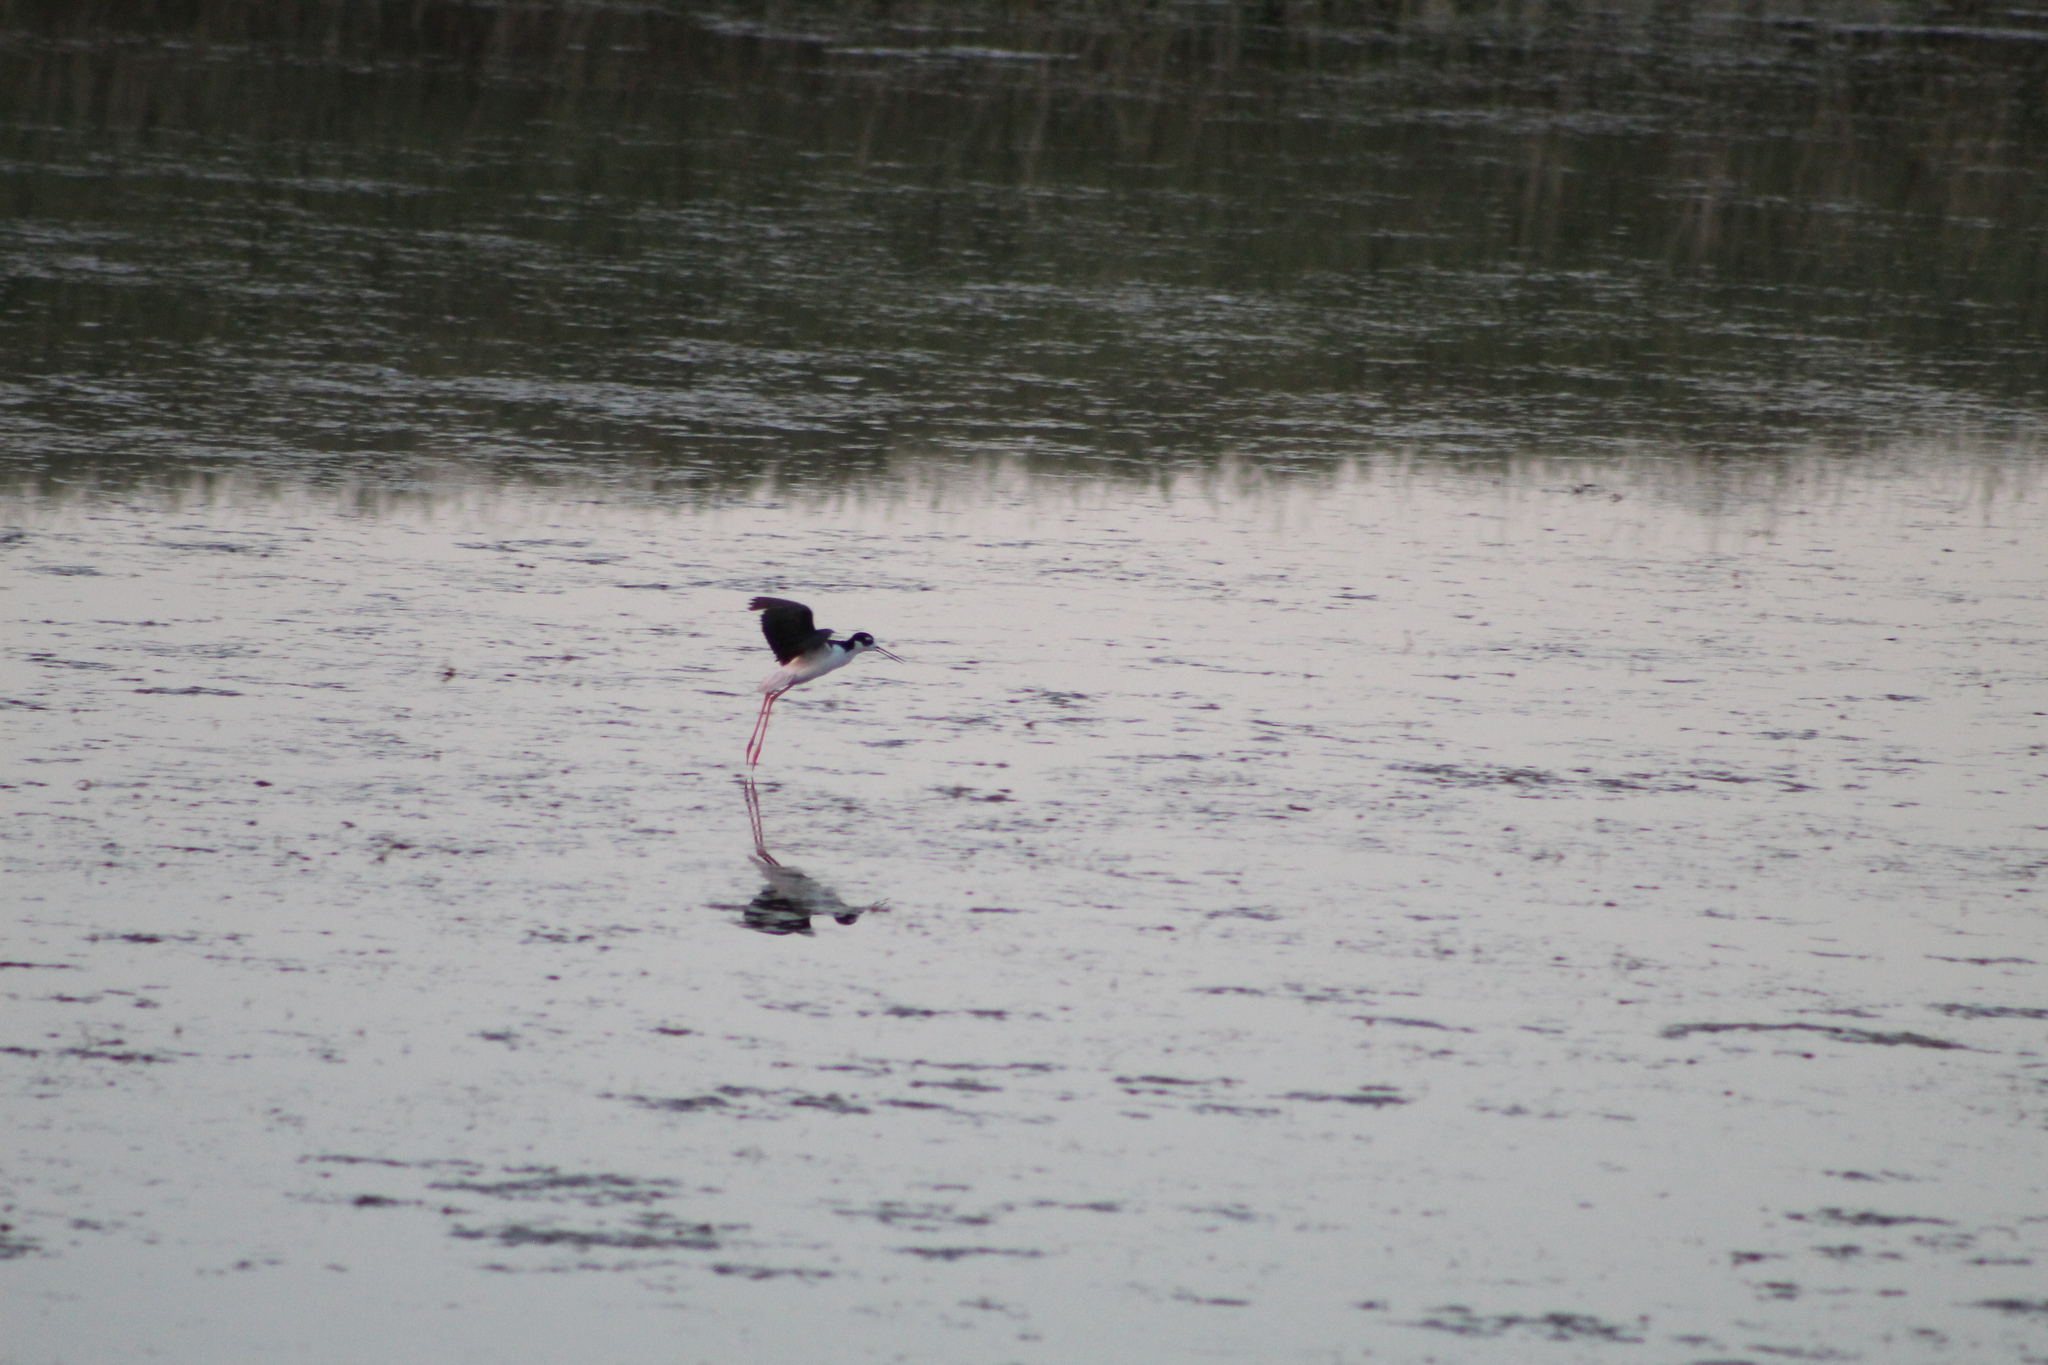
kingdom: Animalia
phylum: Chordata
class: Aves
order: Charadriiformes
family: Recurvirostridae
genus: Himantopus
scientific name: Himantopus mexicanus
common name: Black-necked stilt
